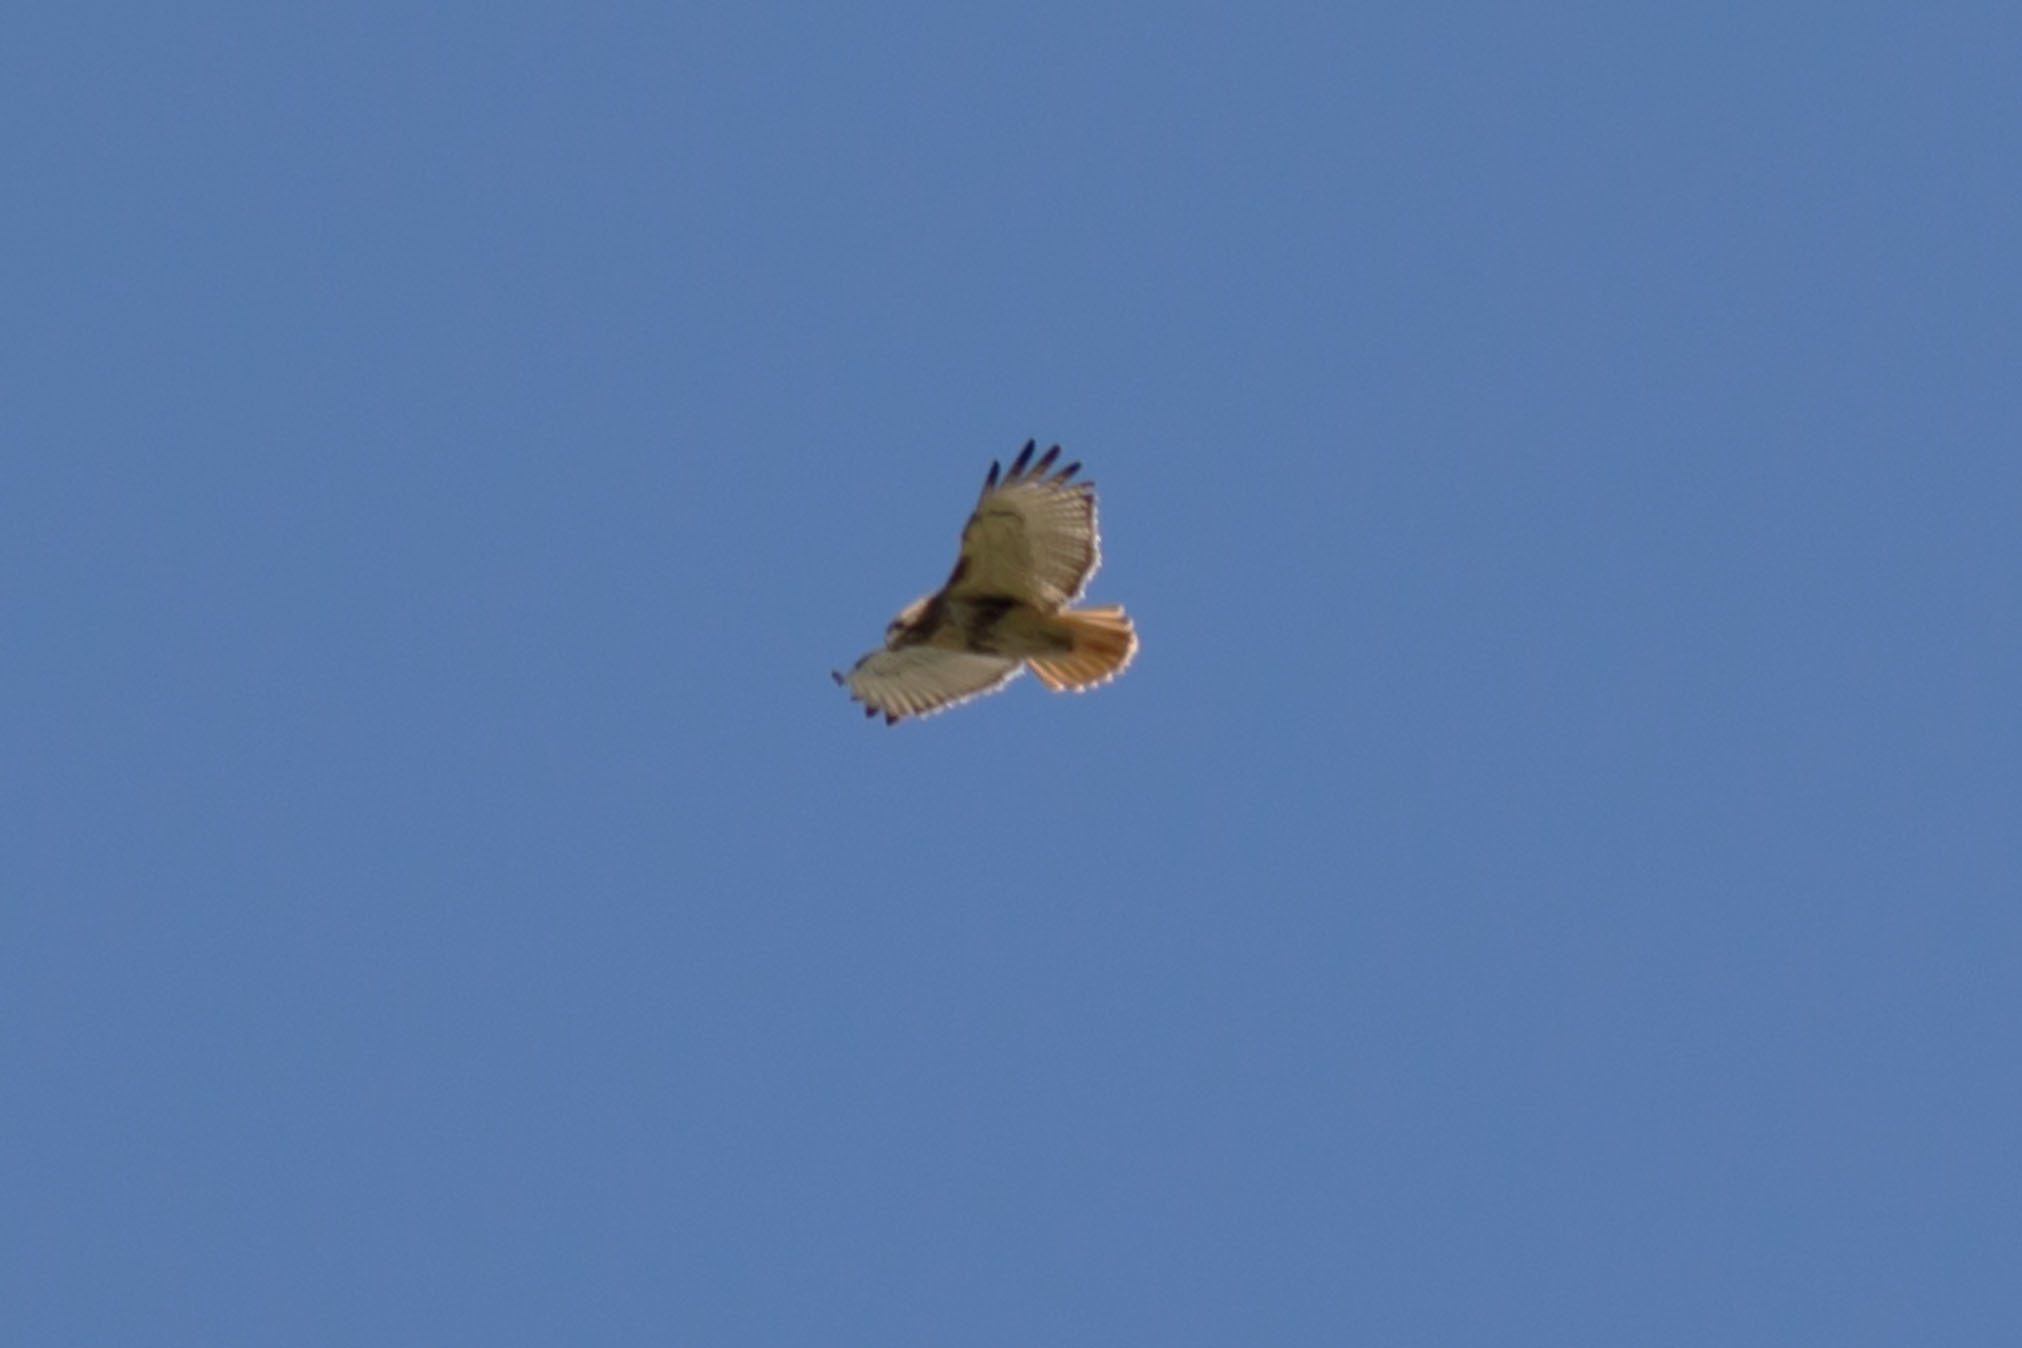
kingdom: Animalia
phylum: Chordata
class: Aves
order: Accipitriformes
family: Accipitridae
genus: Buteo
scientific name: Buteo jamaicensis
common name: Red-tailed hawk
